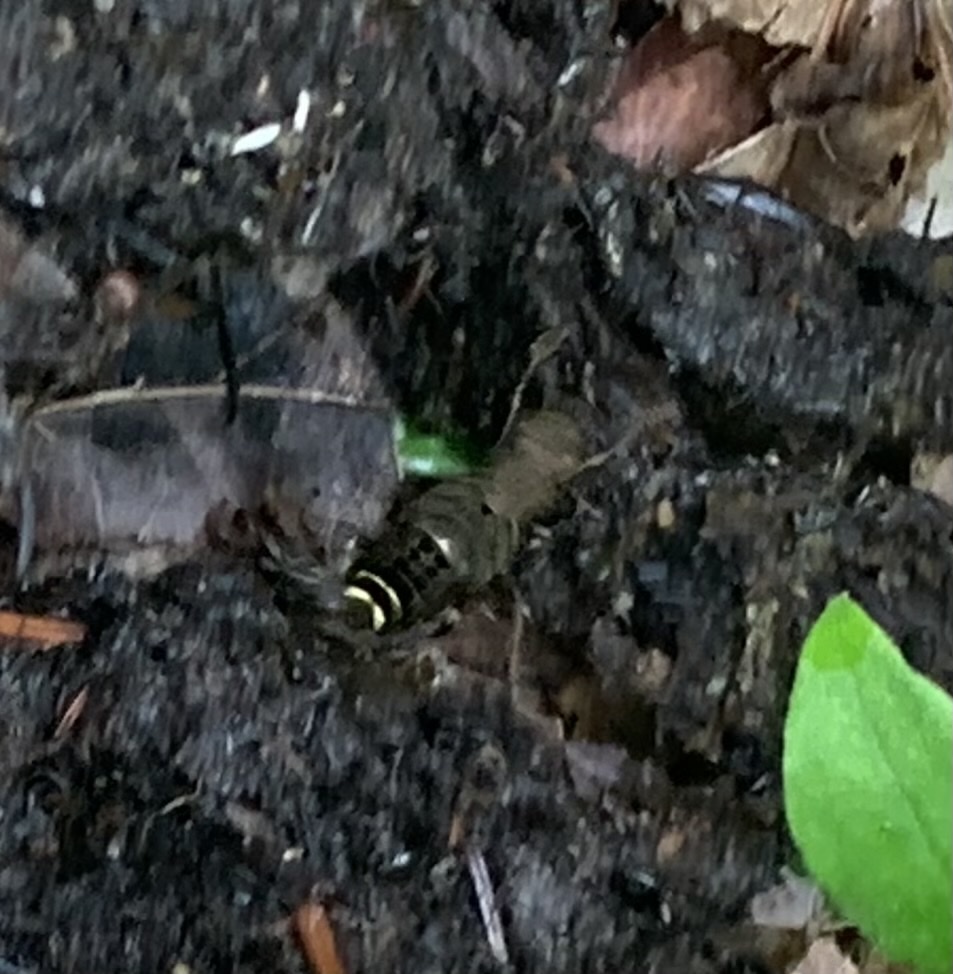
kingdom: Animalia
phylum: Arthropoda
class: Insecta
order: Coleoptera
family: Staphylinidae
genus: Ontholestes
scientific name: Ontholestes cingulatus
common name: Gold-and-brown rove beetle
